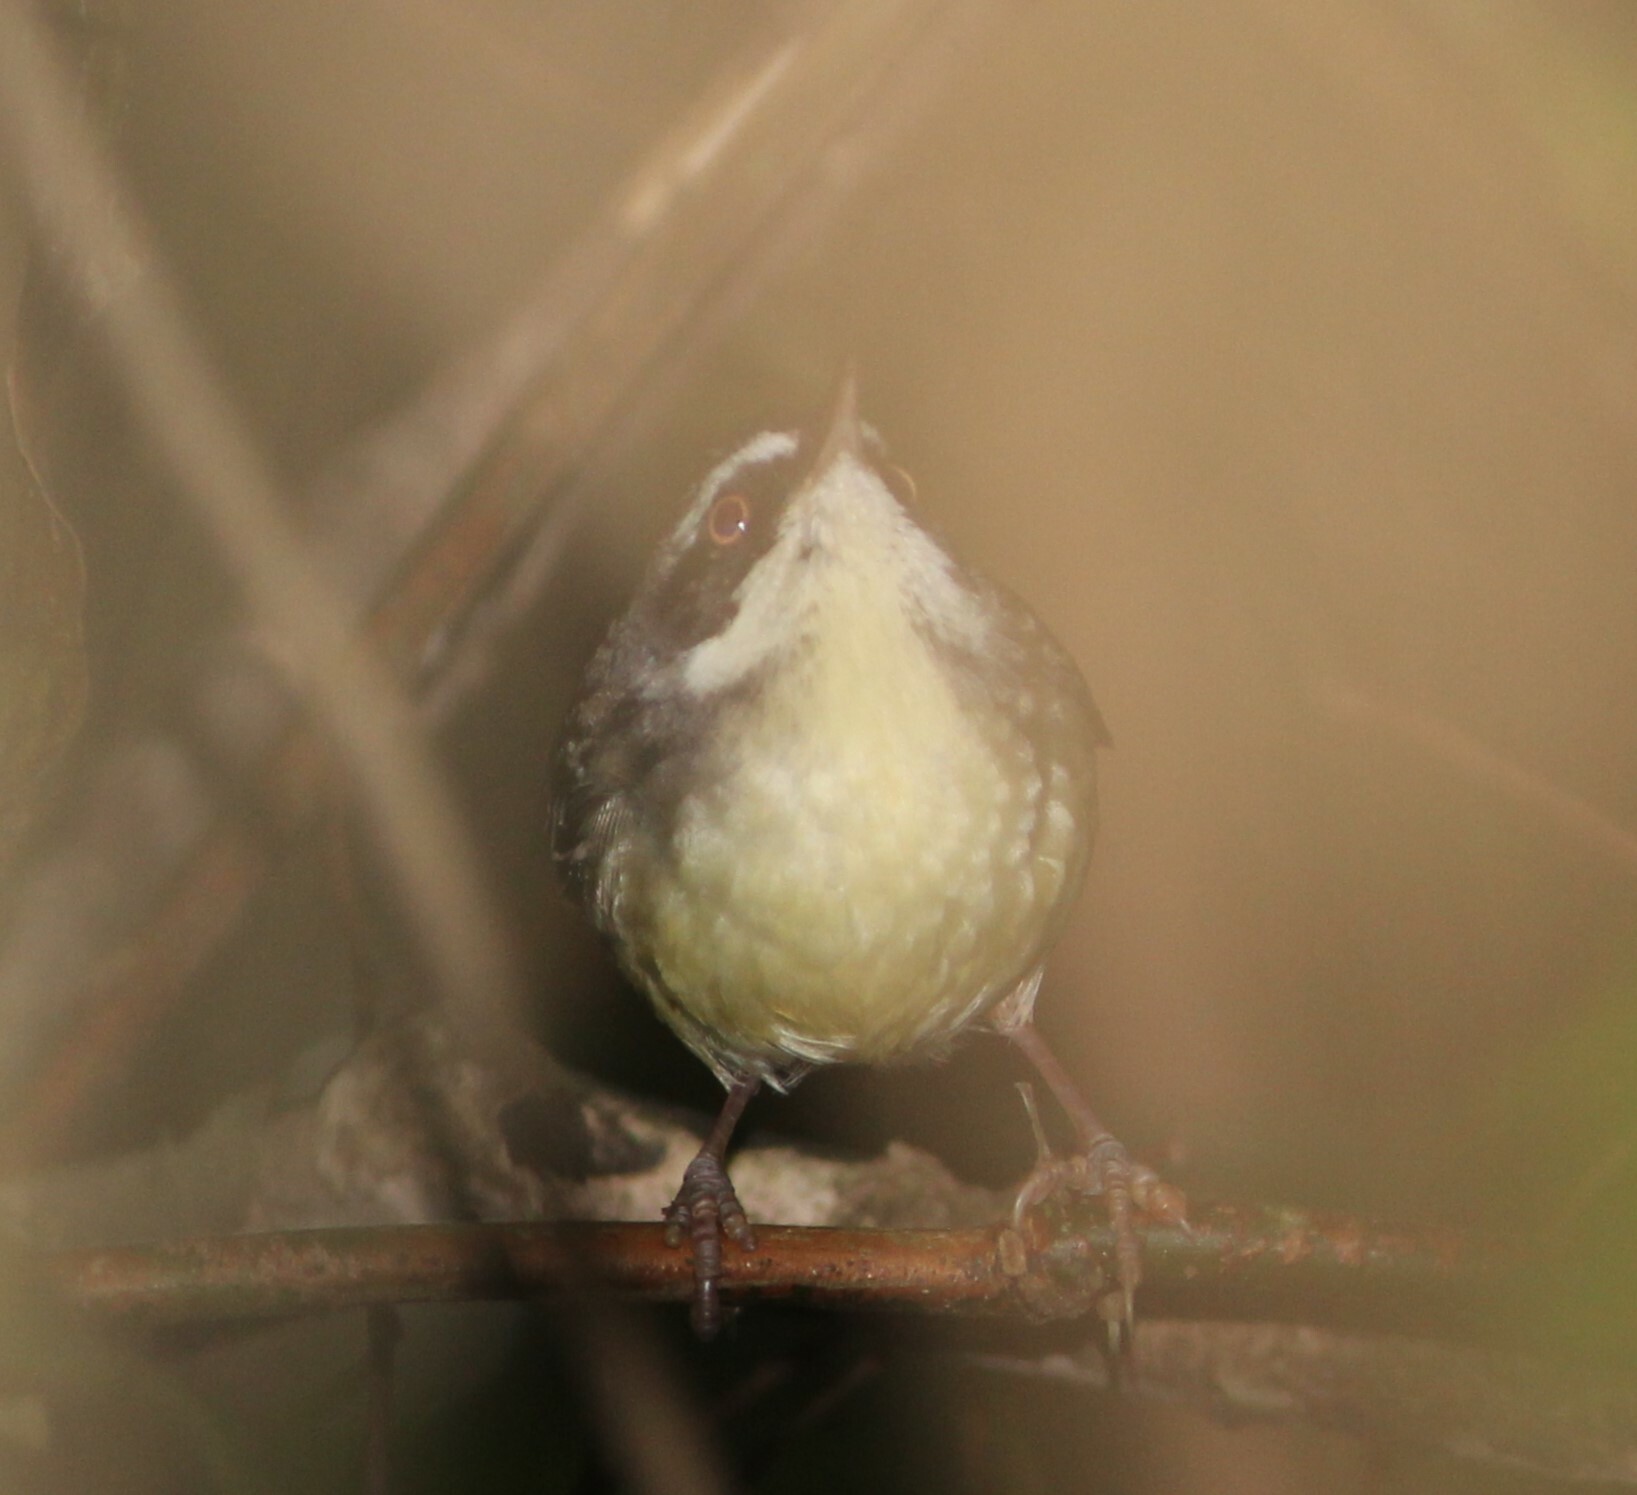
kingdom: Animalia
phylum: Chordata
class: Aves
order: Passeriformes
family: Acanthizidae
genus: Sericornis
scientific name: Sericornis frontalis
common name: White-browed scrubwren
